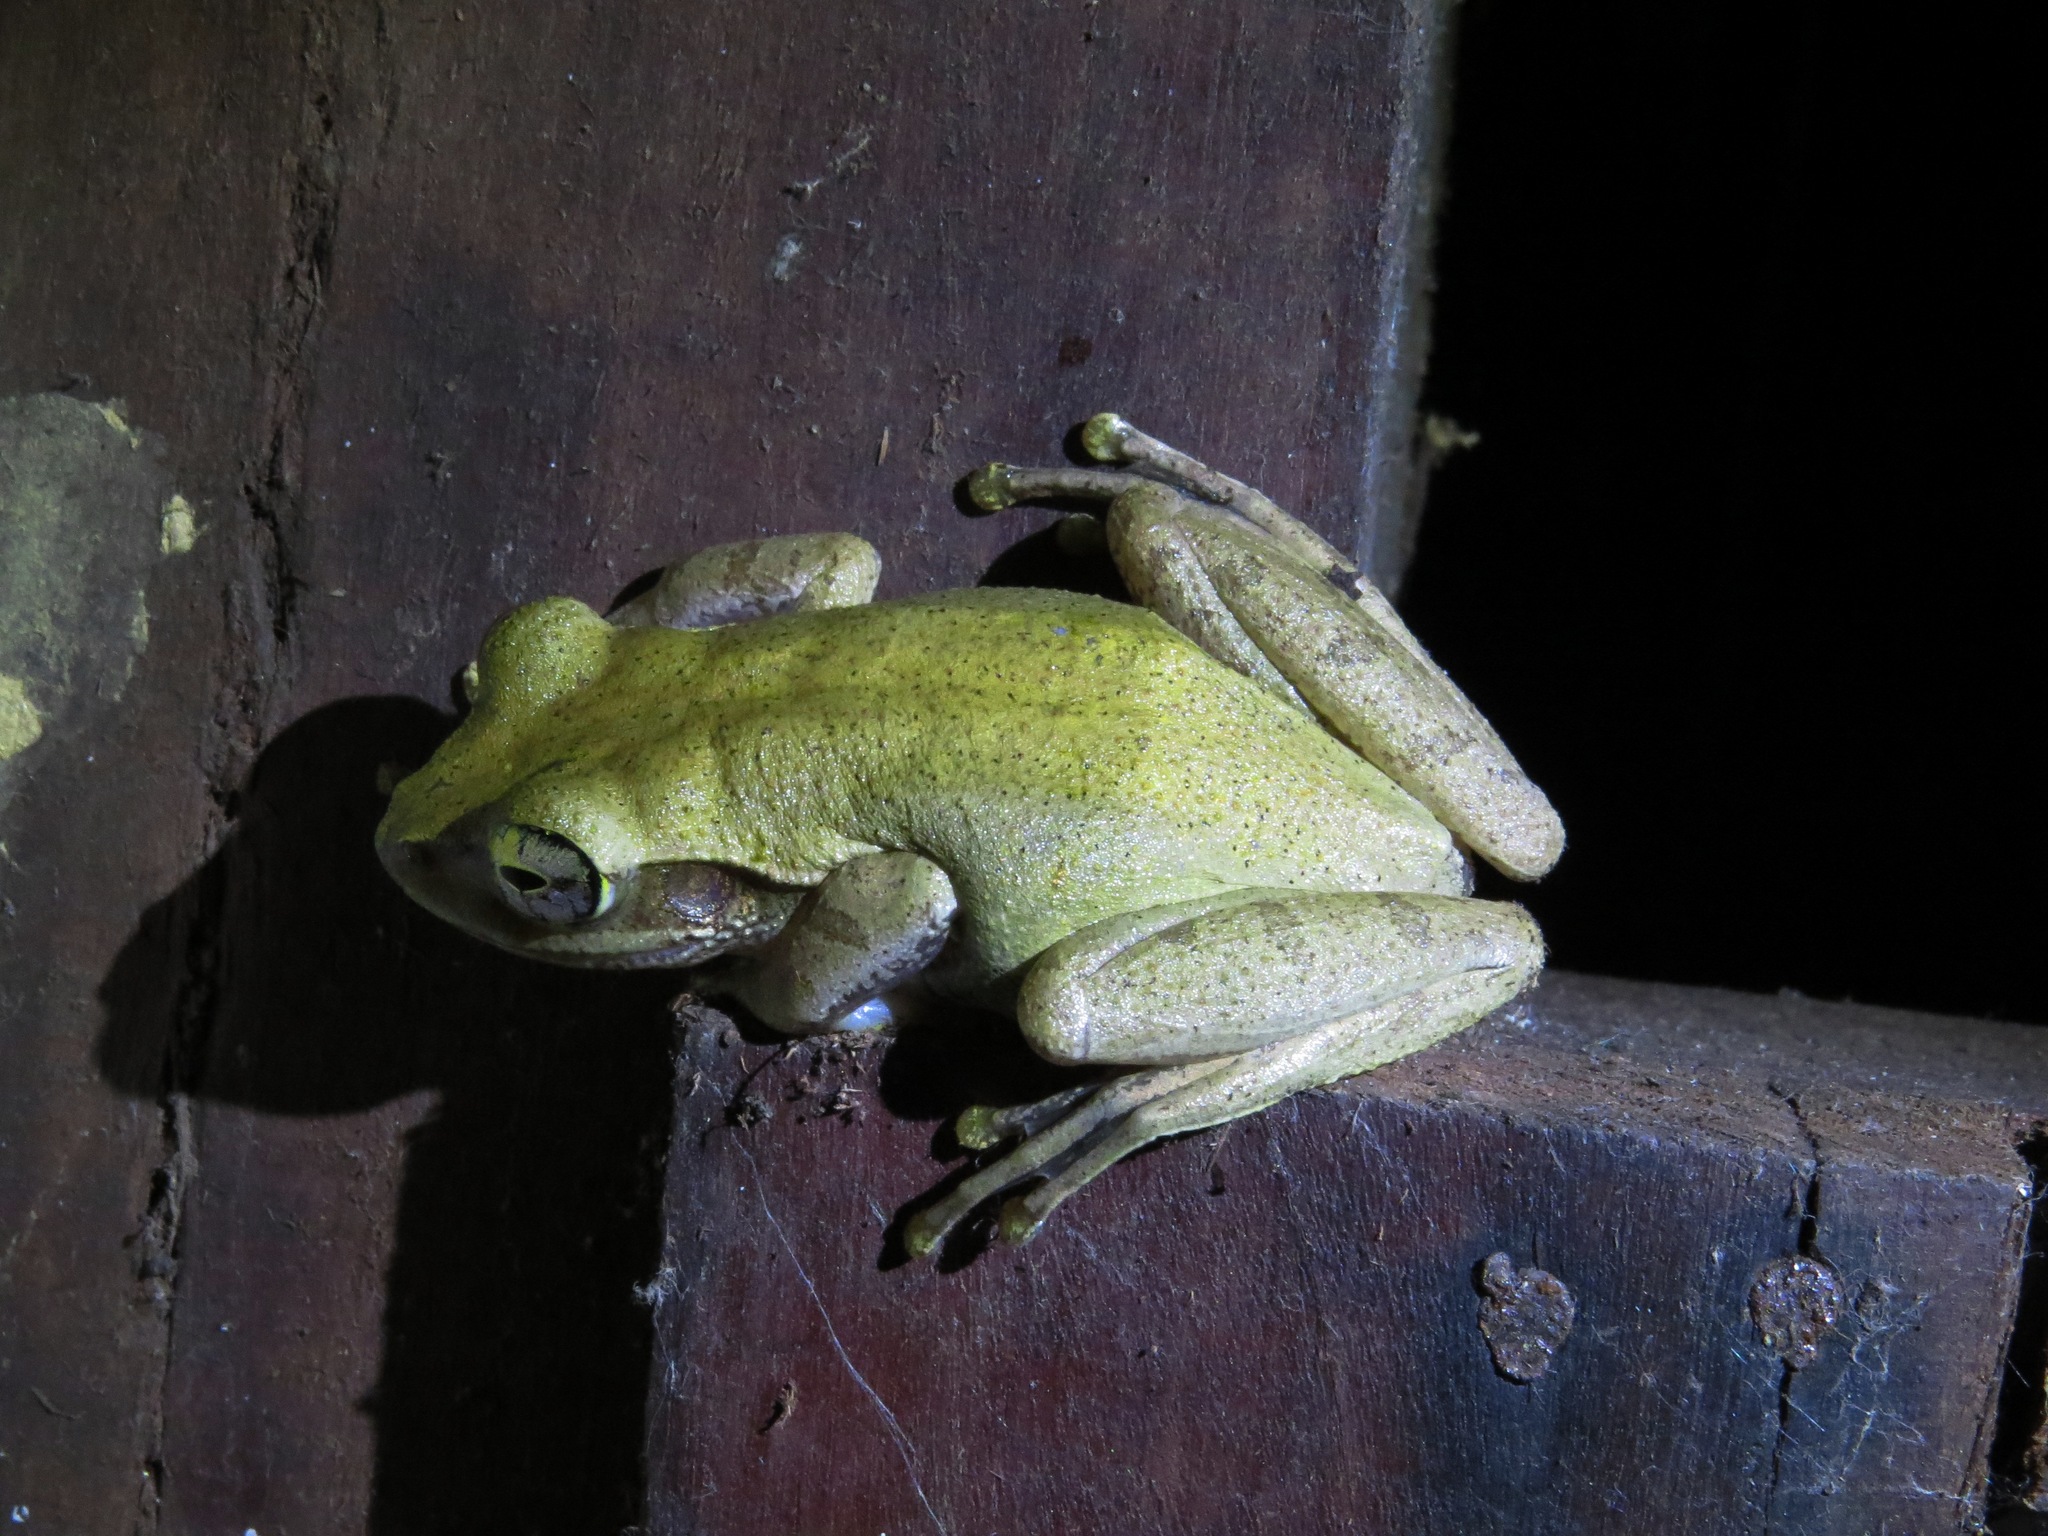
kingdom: Animalia
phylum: Chordata
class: Amphibia
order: Anura
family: Mantellidae
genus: Boophis
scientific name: Boophis tephraeomystax
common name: Dumeril's bright-eyed frog
